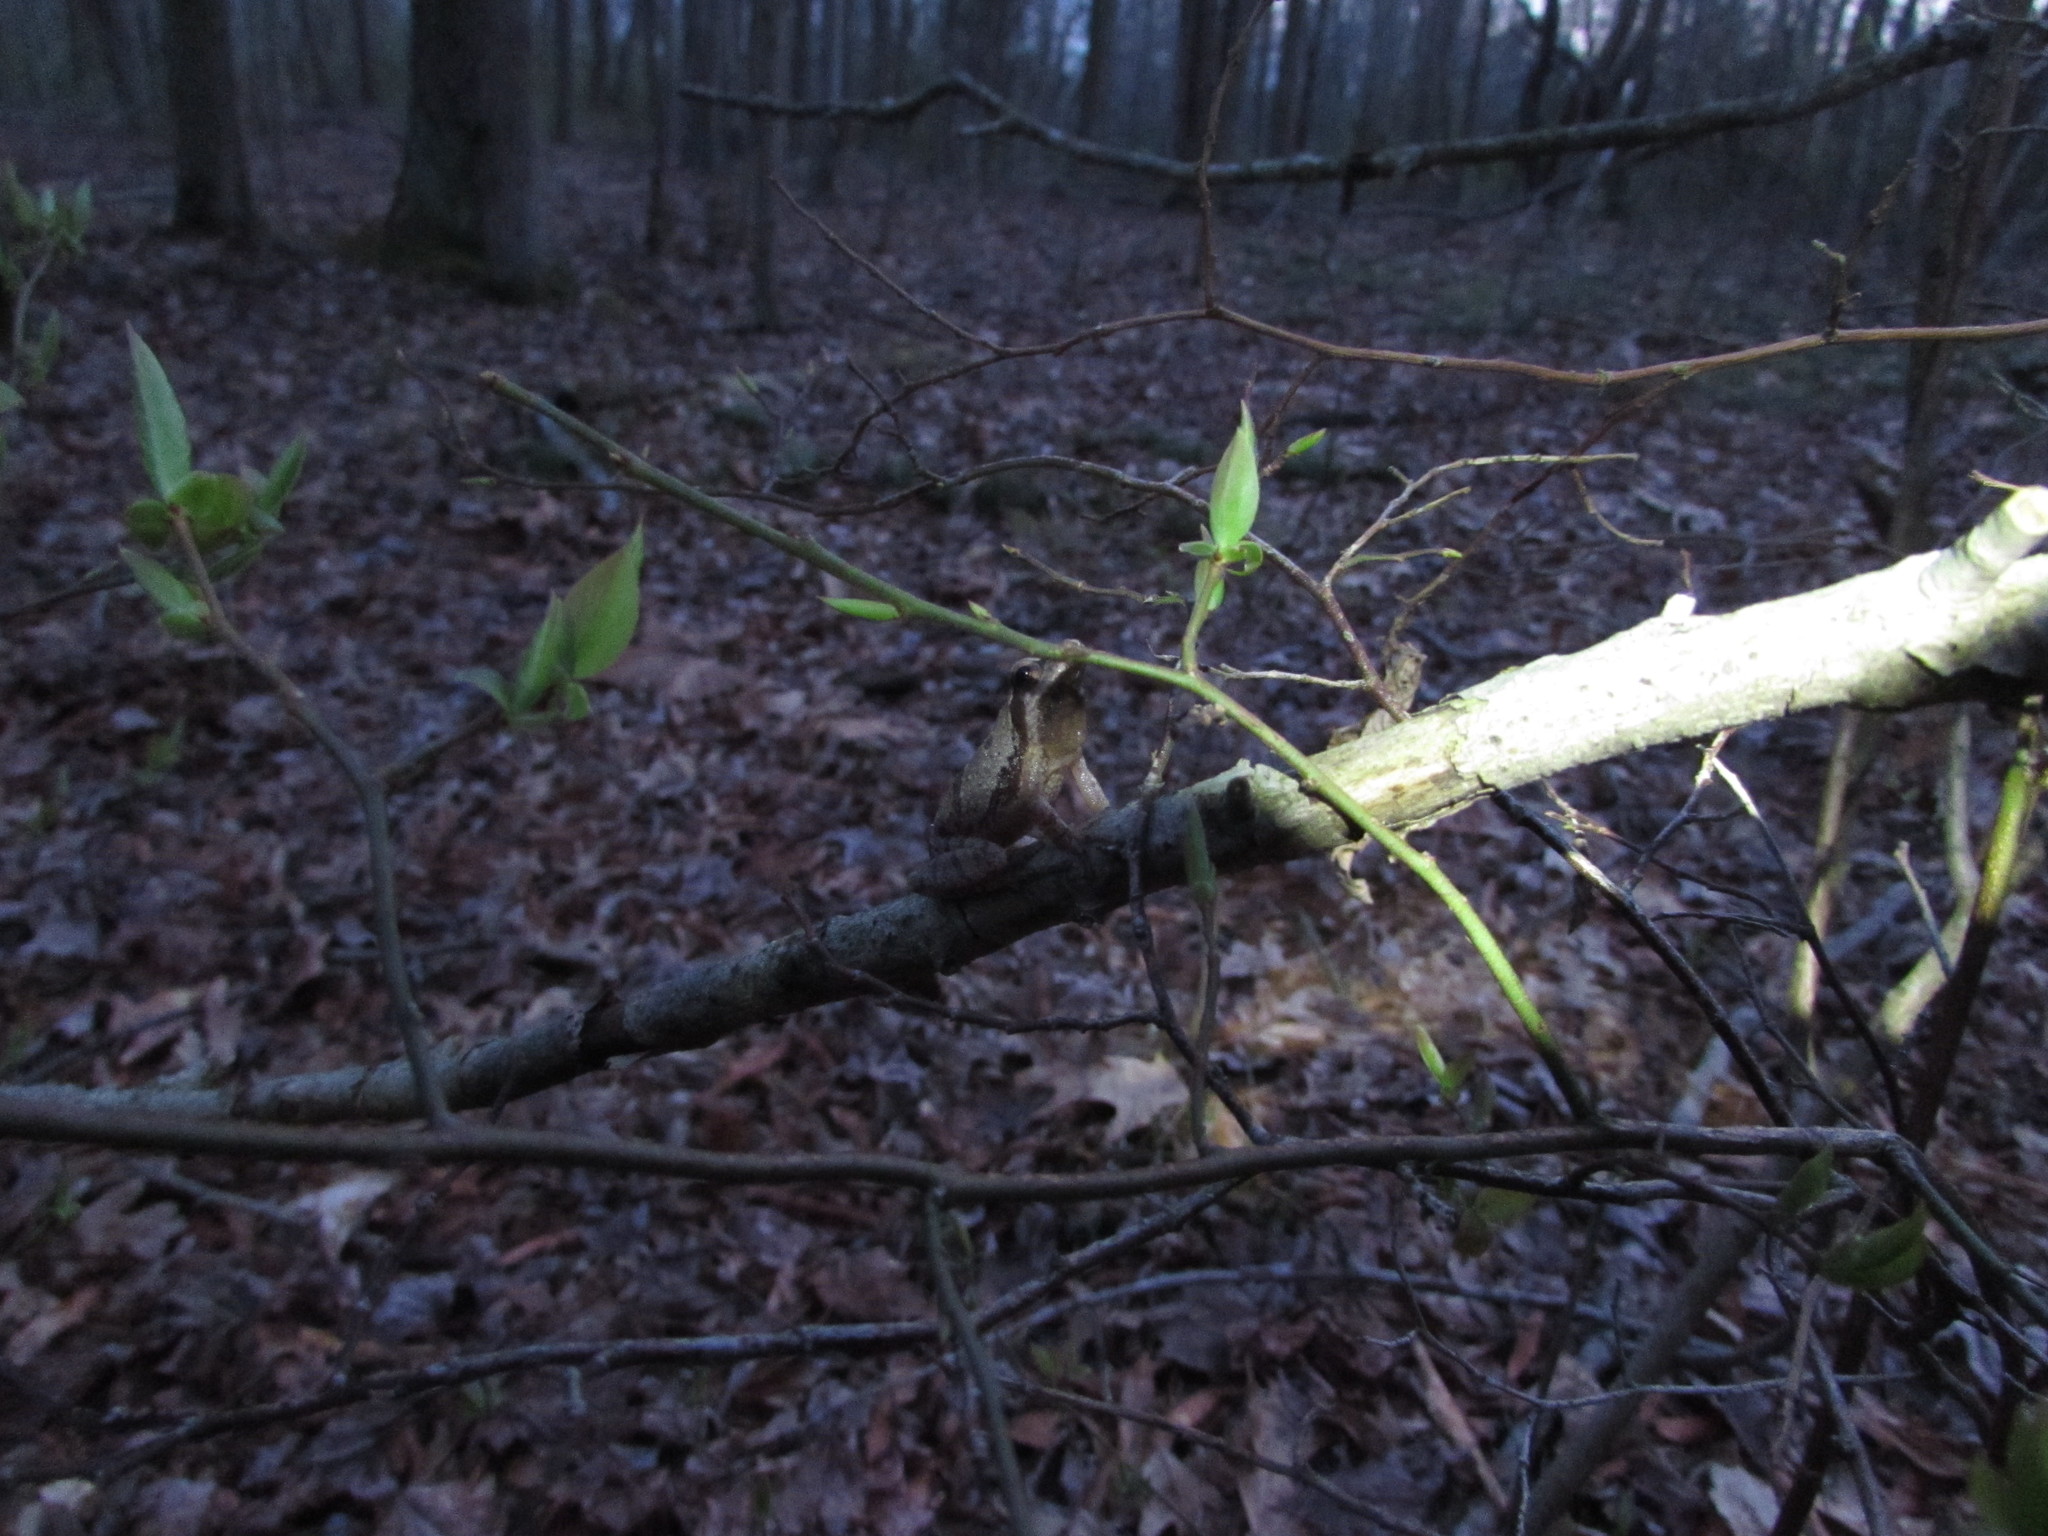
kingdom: Animalia
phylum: Chordata
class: Amphibia
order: Anura
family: Hylidae
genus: Pseudacris
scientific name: Pseudacris crucifer
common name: Spring peeper
